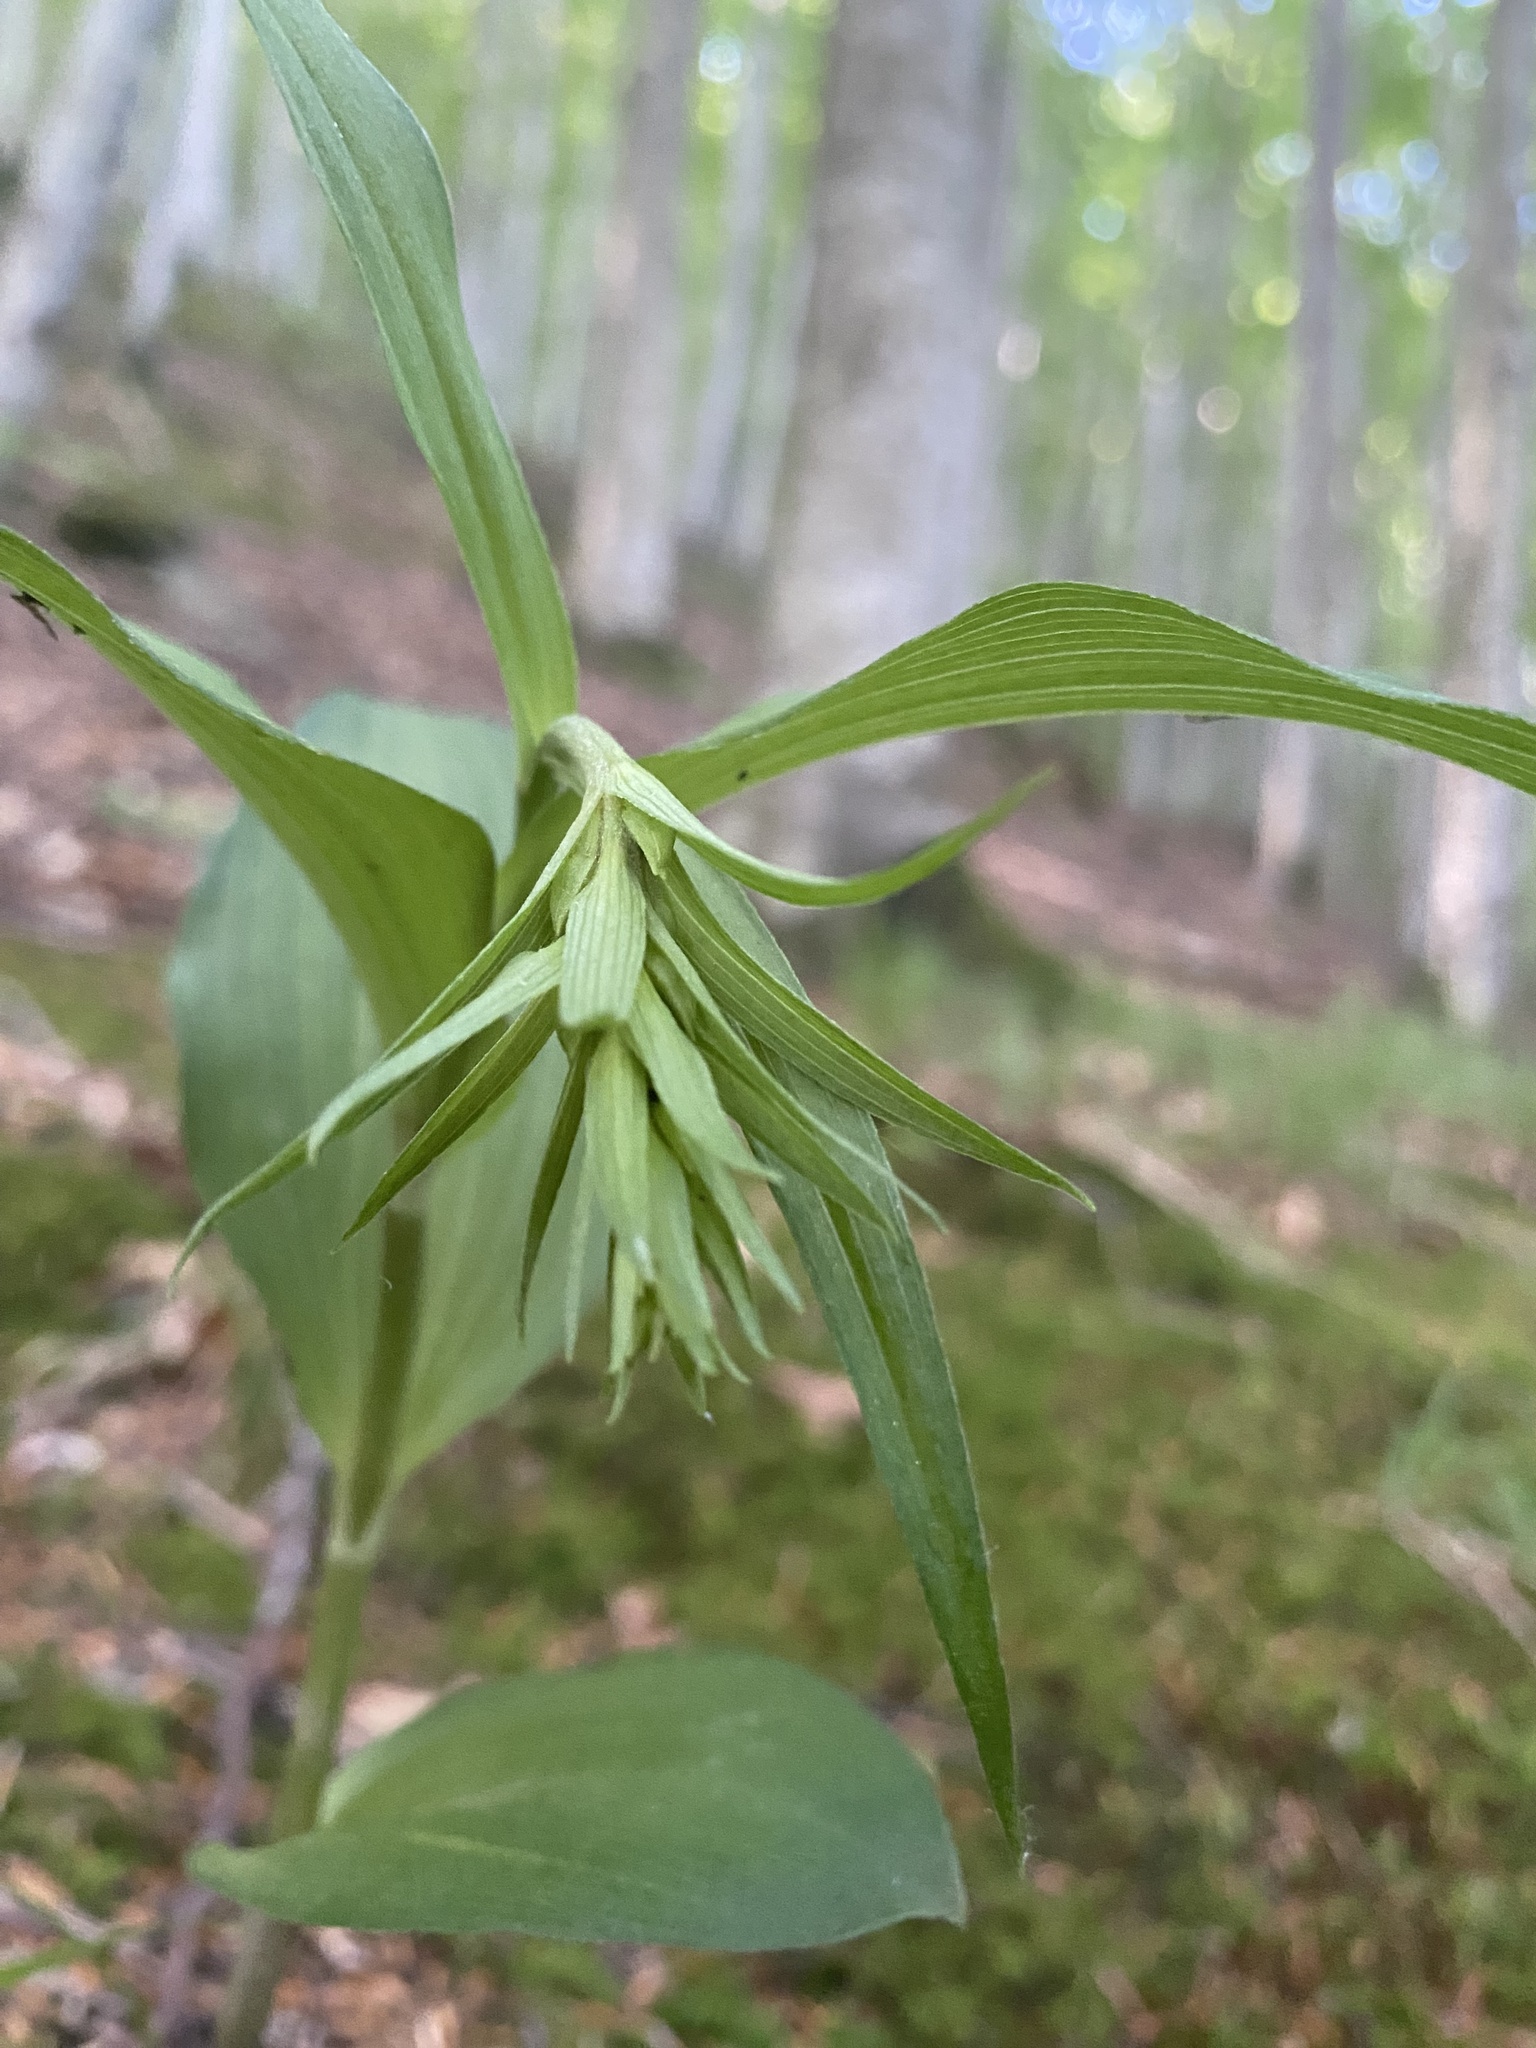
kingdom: Plantae
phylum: Tracheophyta
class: Liliopsida
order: Asparagales
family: Orchidaceae
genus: Cephalanthera
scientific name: Cephalanthera damasonium
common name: White helleborine
